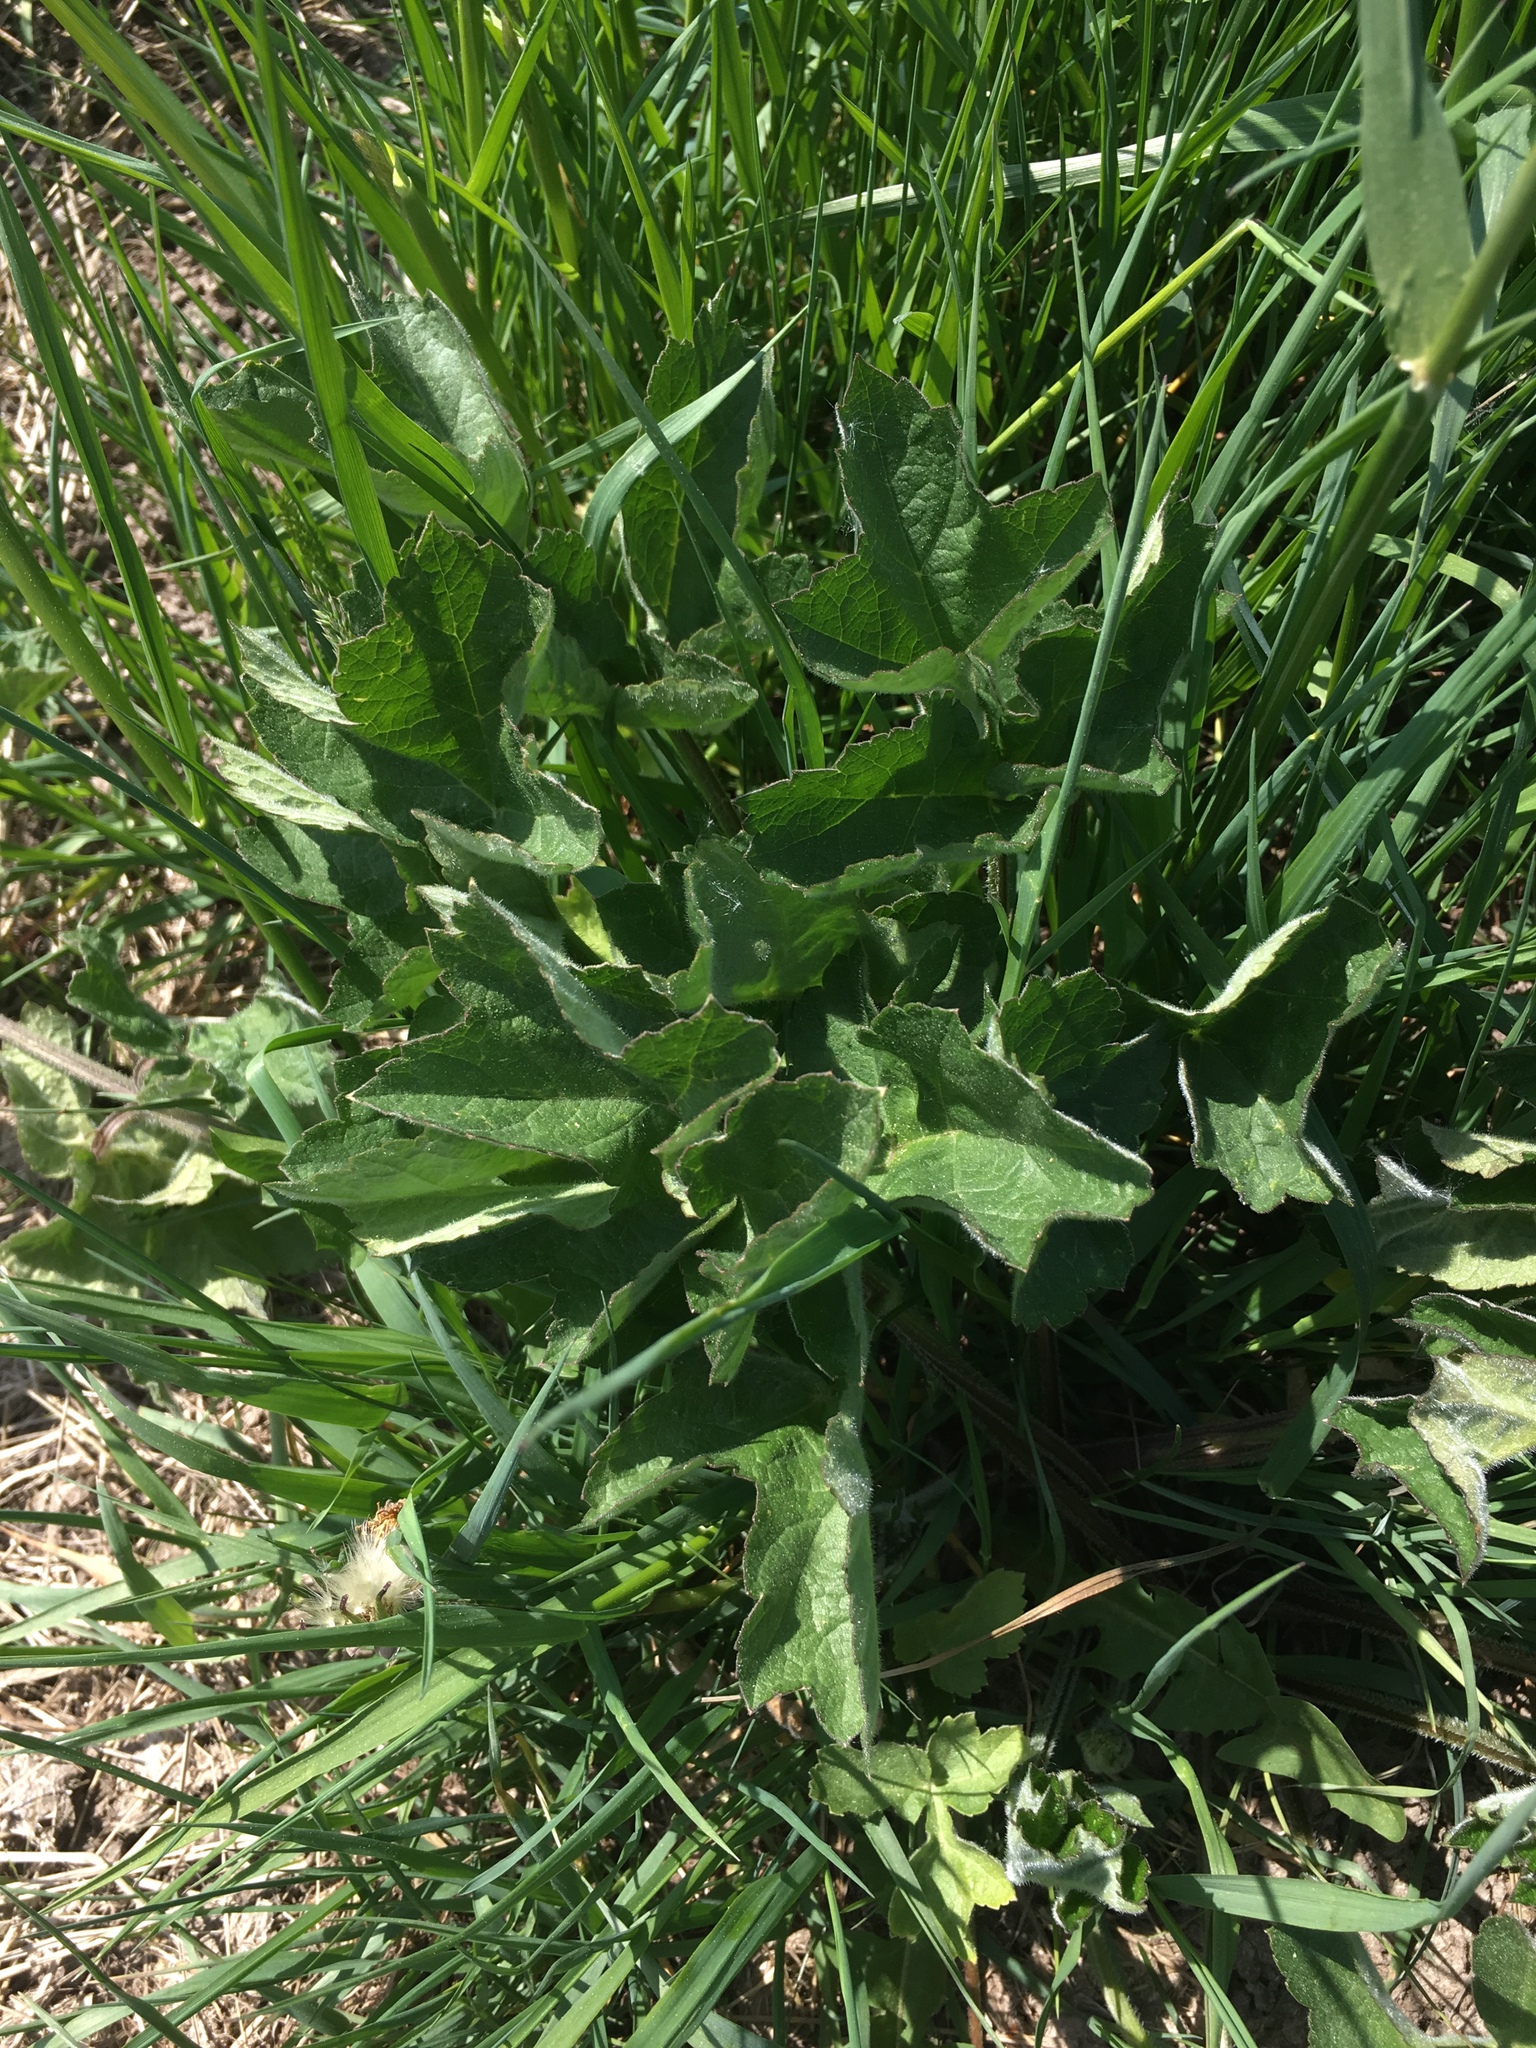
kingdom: Plantae
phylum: Tracheophyta
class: Magnoliopsida
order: Apiales
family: Apiaceae
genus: Heracleum
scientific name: Heracleum sphondylium
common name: Hogweed
